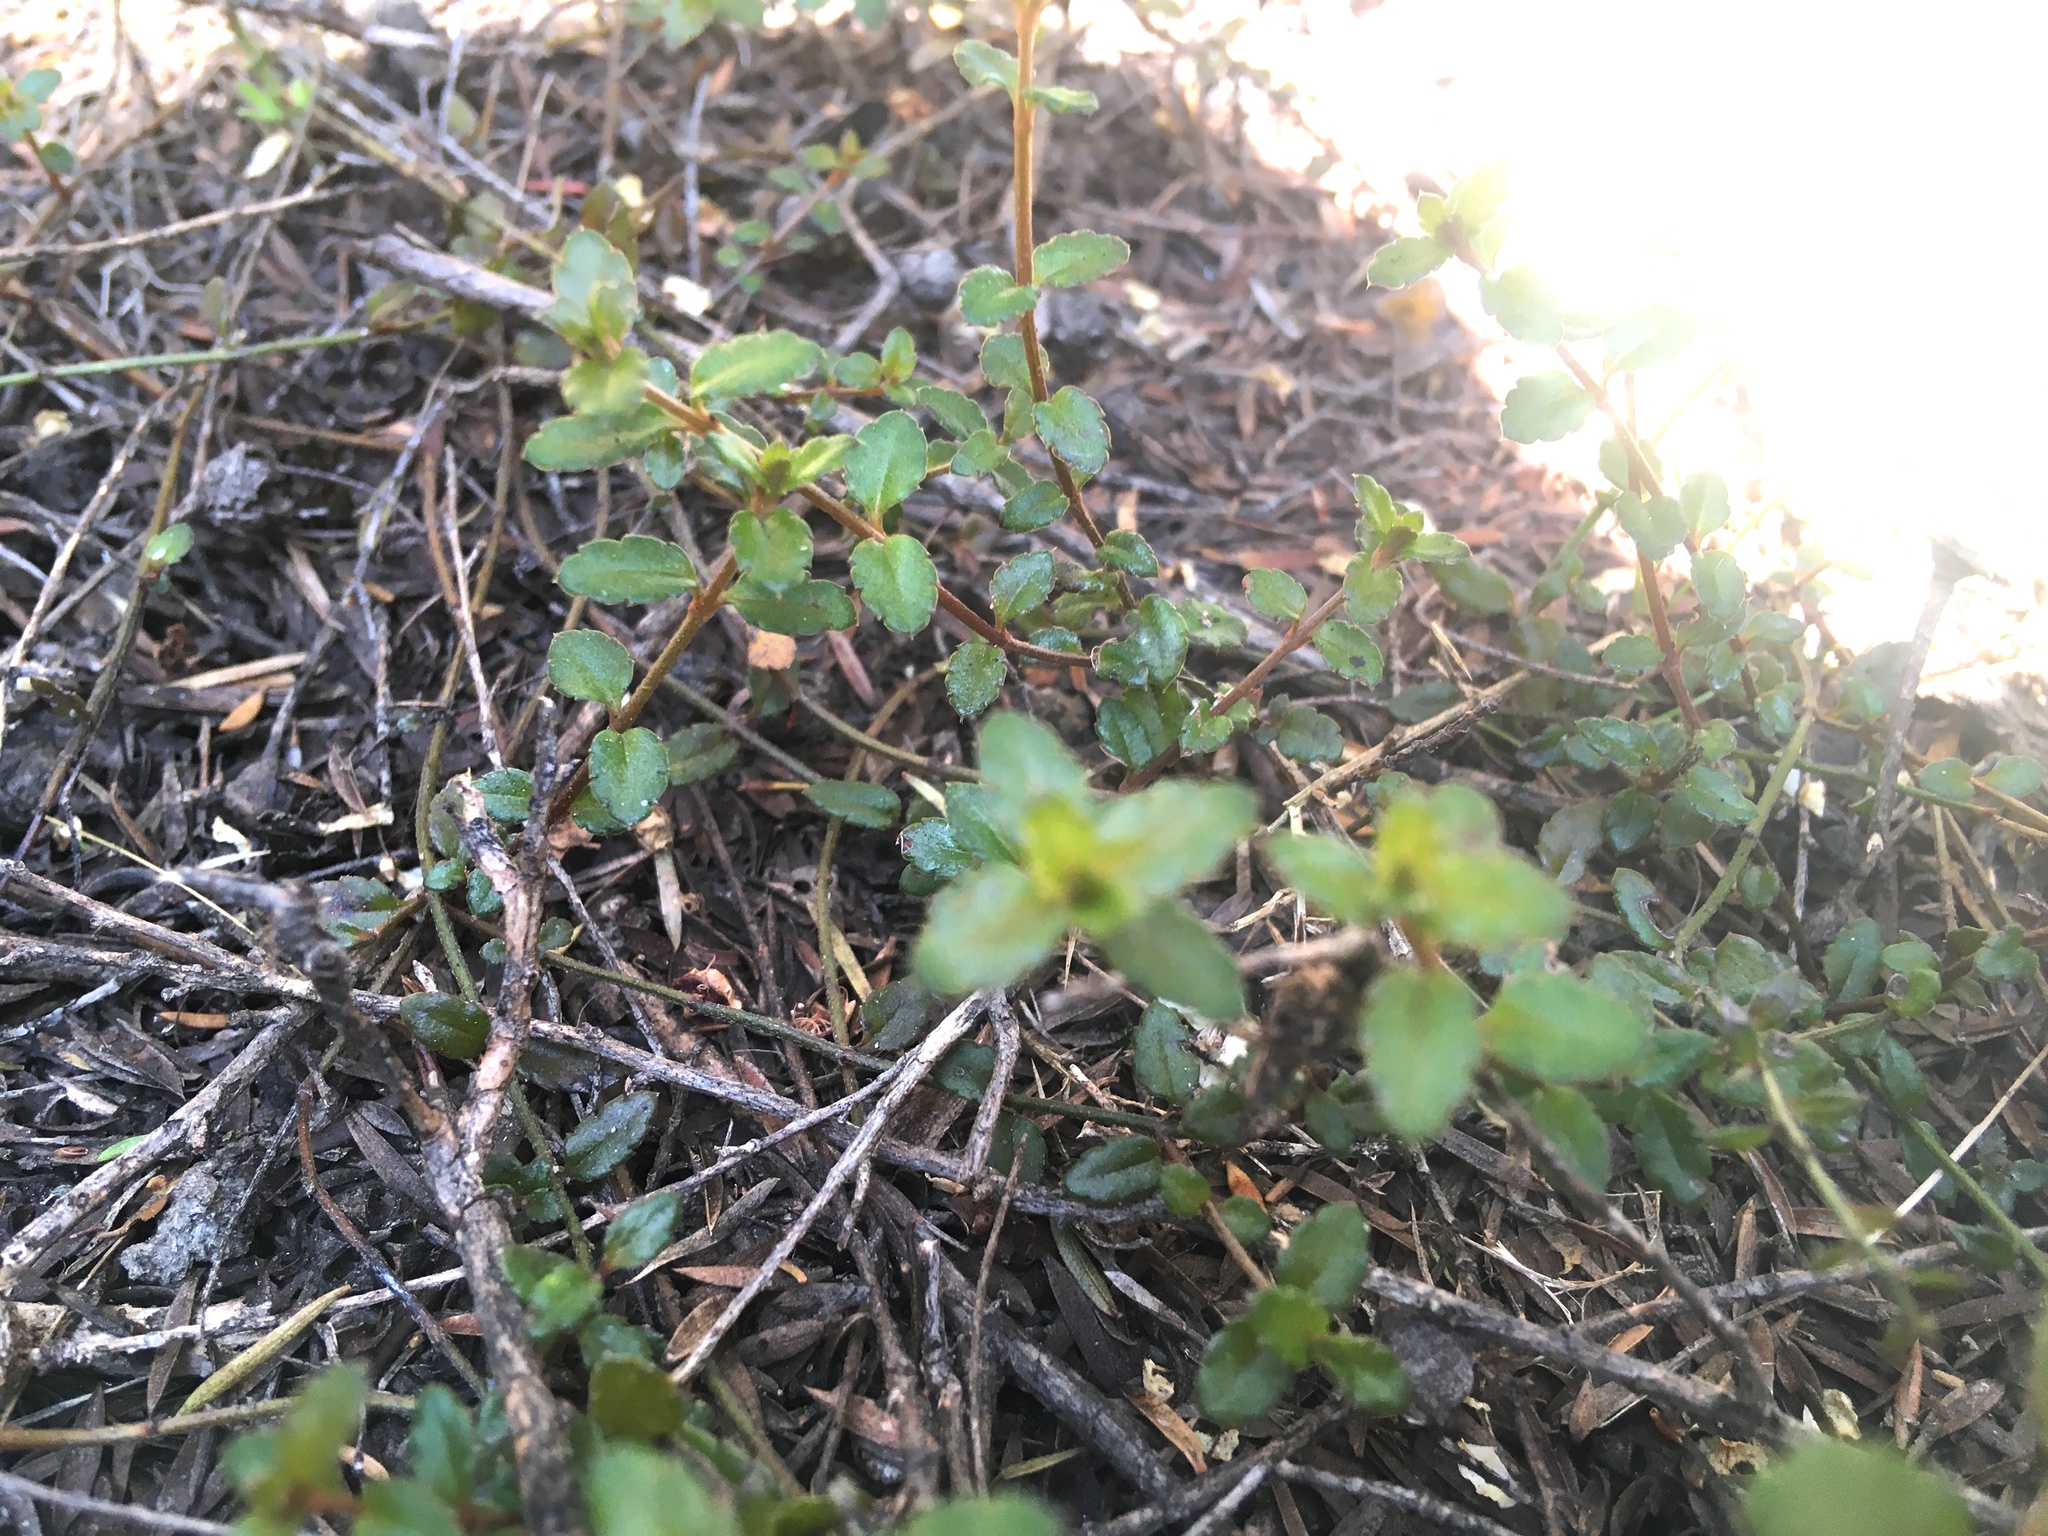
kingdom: Plantae
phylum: Tracheophyta
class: Magnoliopsida
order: Saxifragales
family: Haloragaceae
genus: Gonocarpus
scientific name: Gonocarpus incanus
